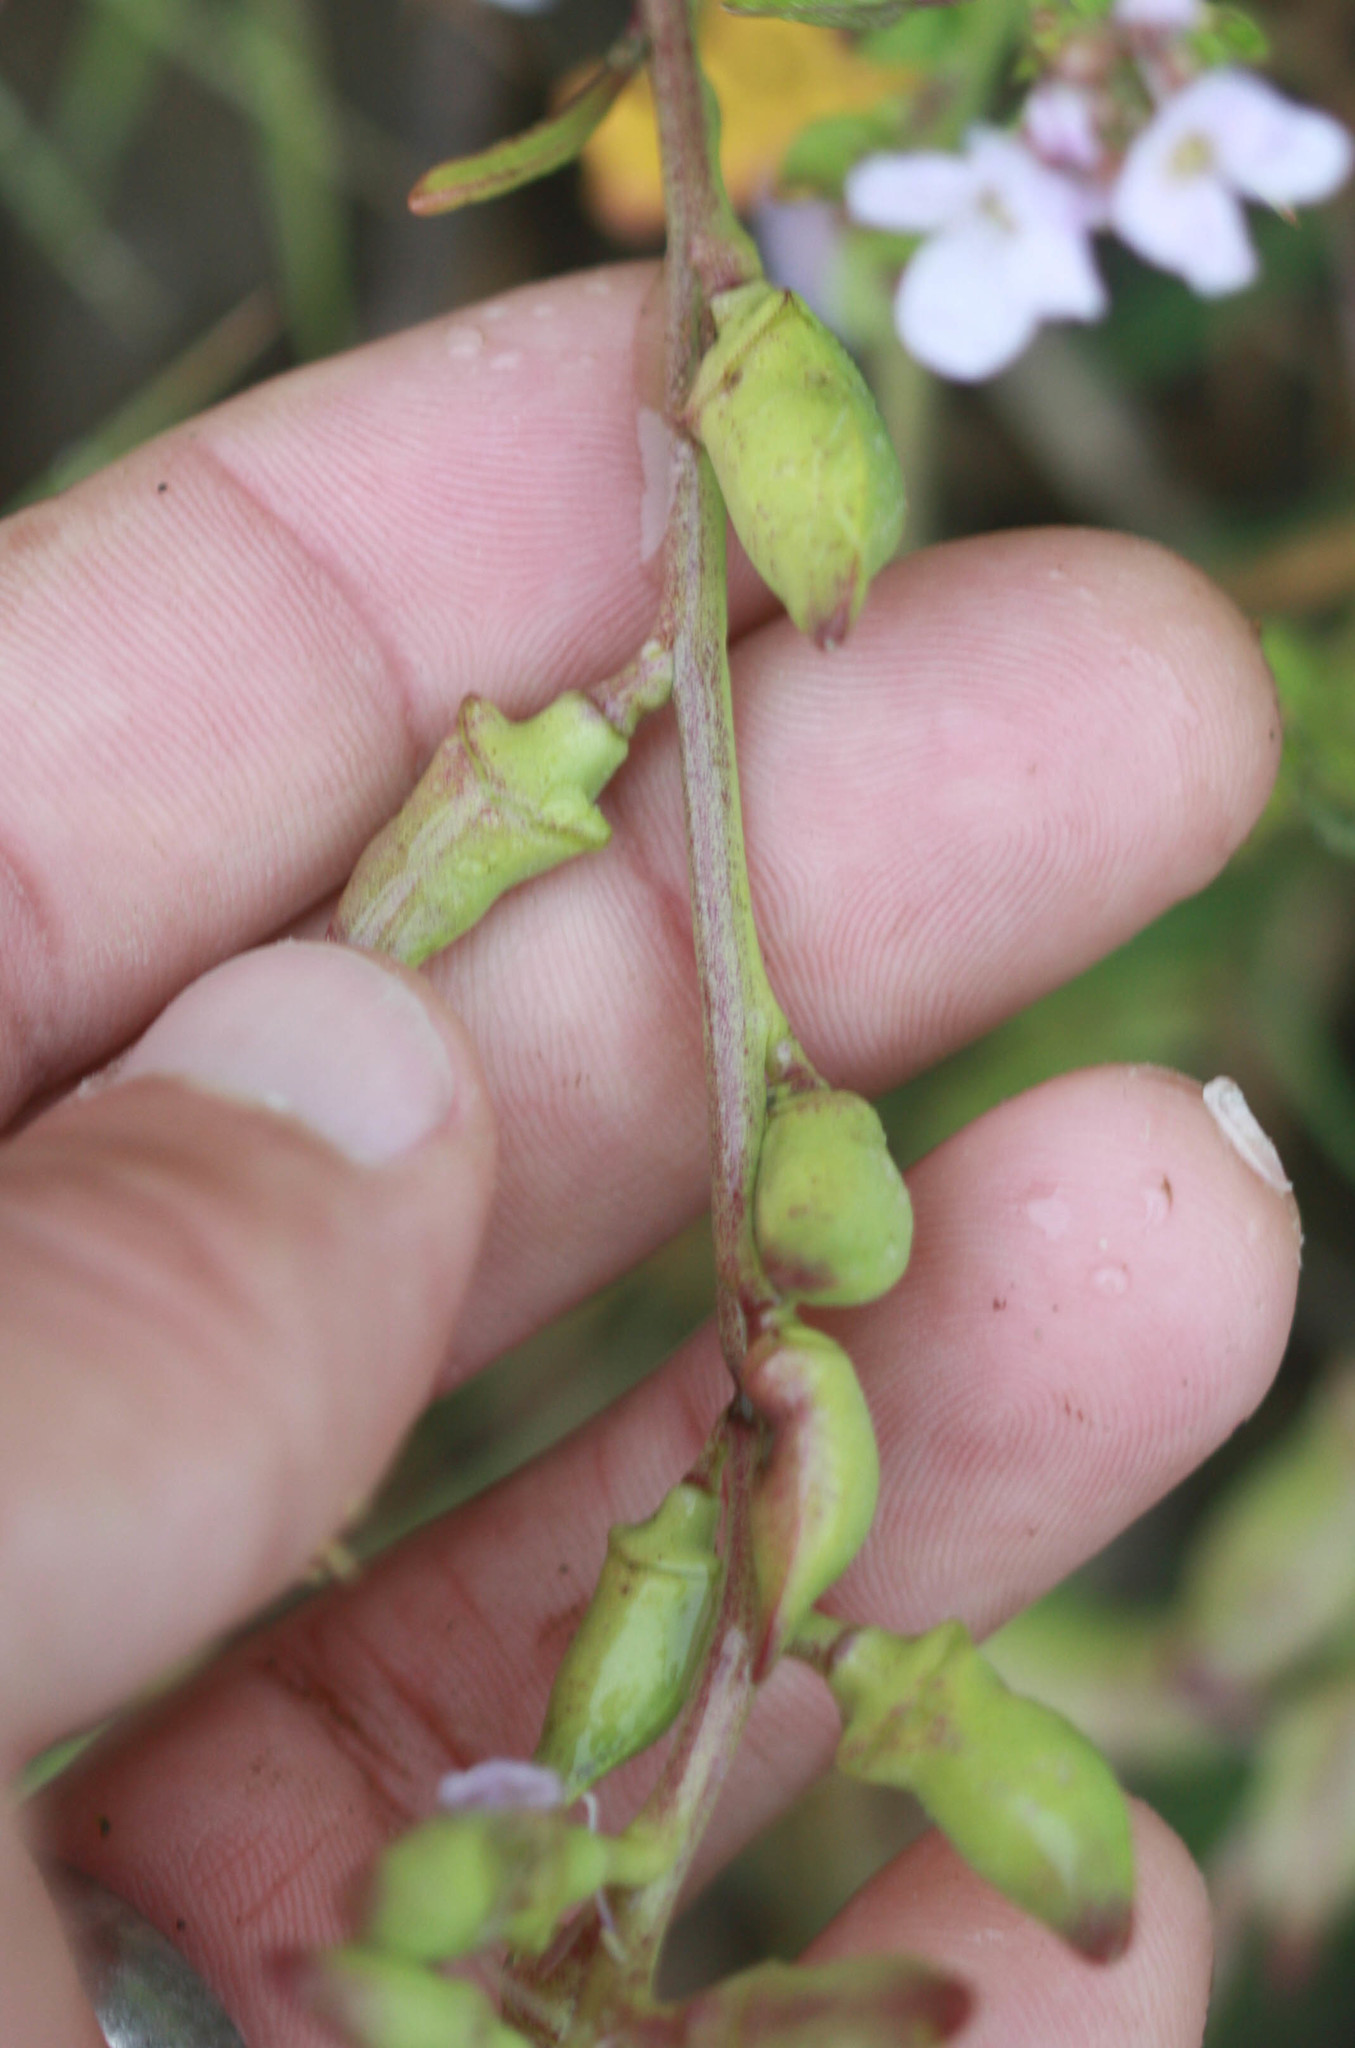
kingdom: Plantae
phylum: Tracheophyta
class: Magnoliopsida
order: Brassicales
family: Brassicaceae
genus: Cakile
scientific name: Cakile maritima
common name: Sea rocket
